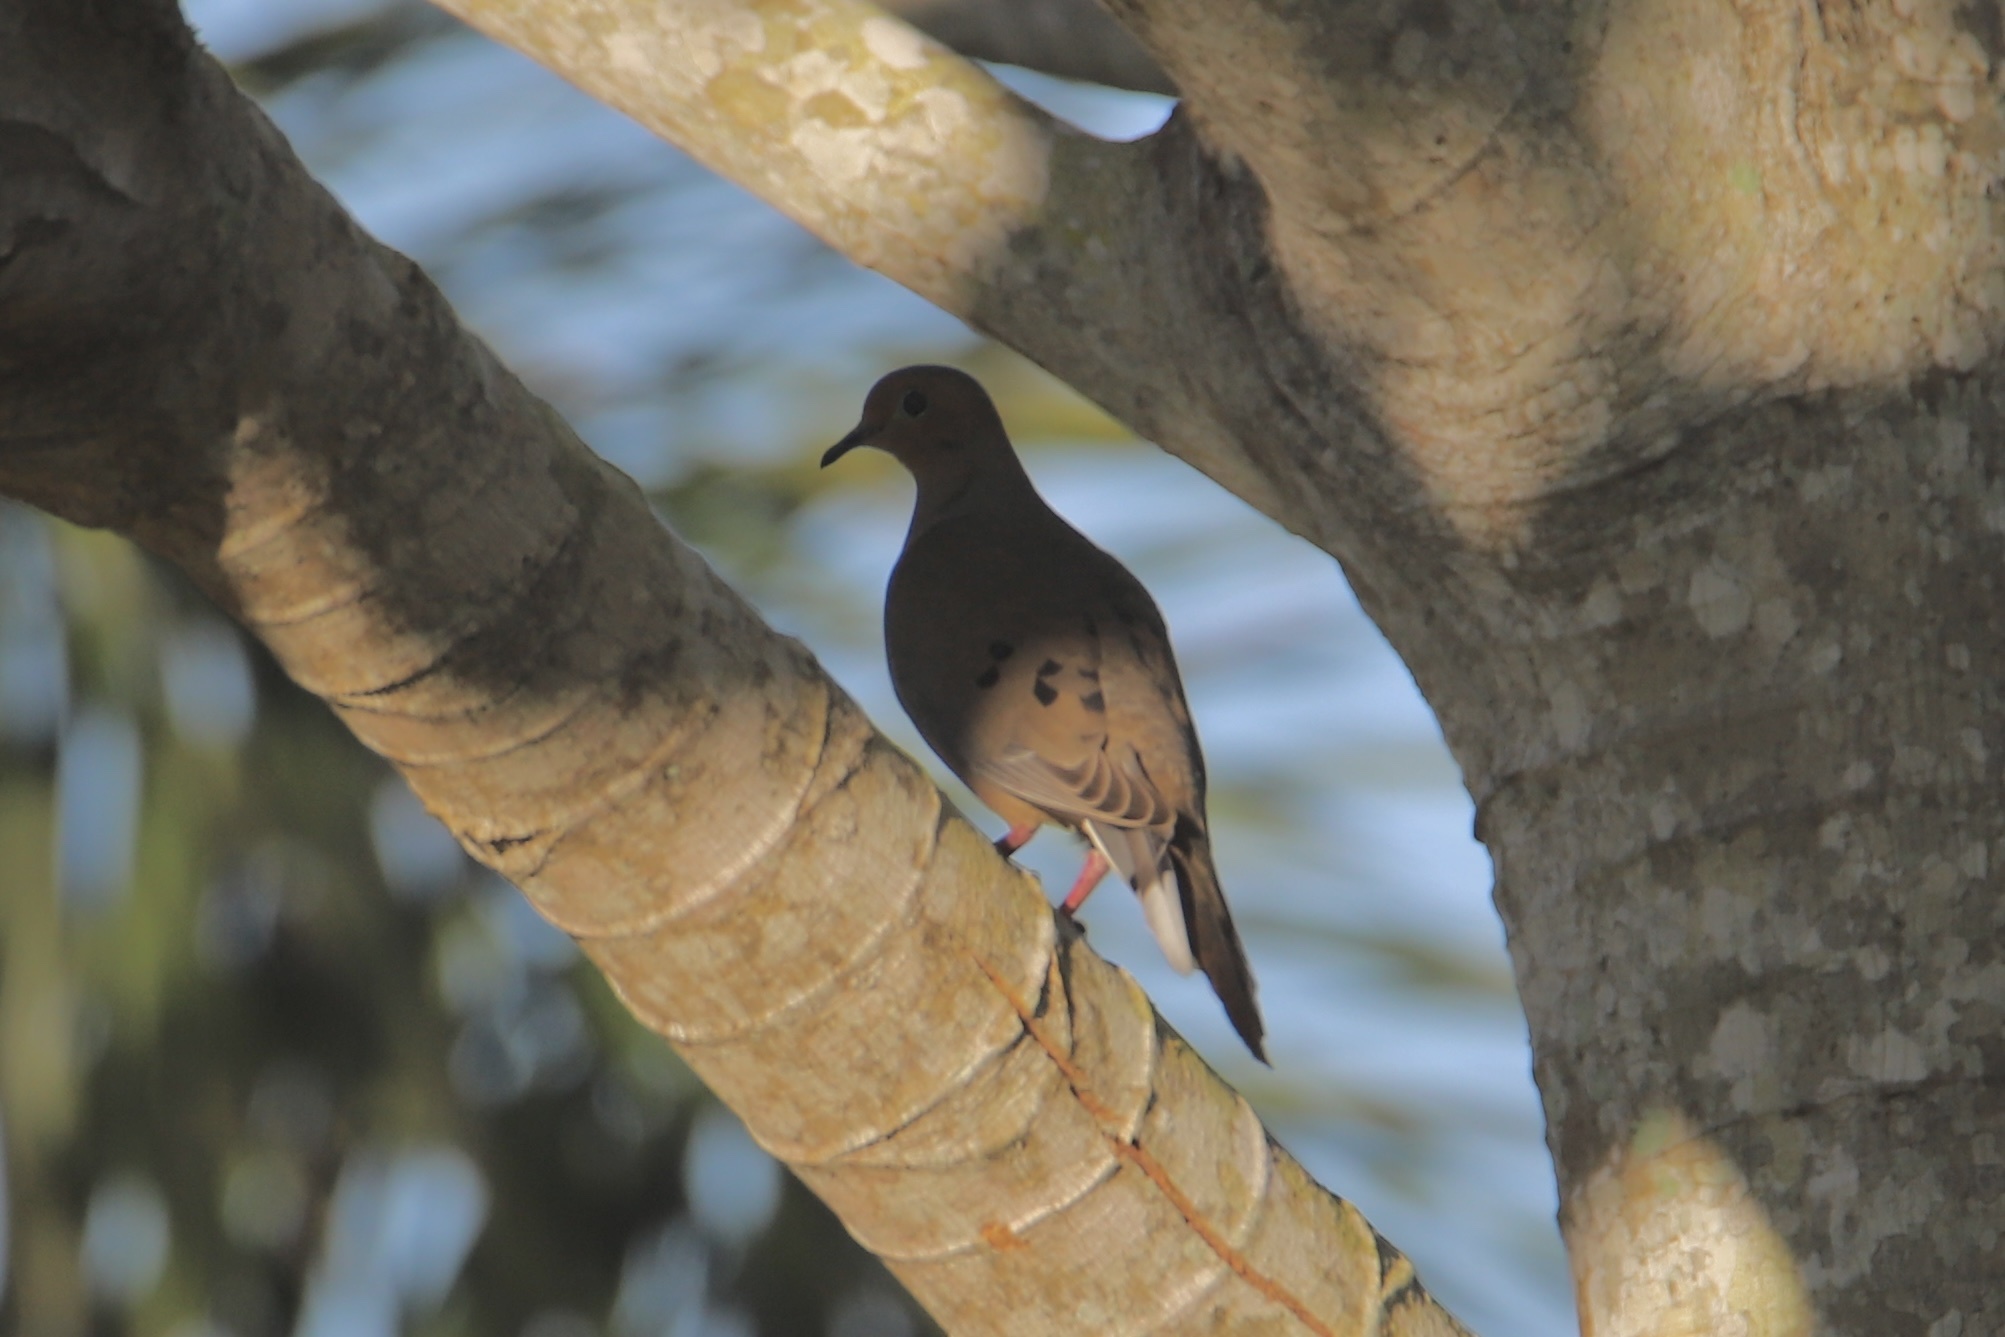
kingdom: Animalia
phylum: Chordata
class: Aves
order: Columbiformes
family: Columbidae
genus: Zenaida
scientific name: Zenaida aurita
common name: Zenaida dove
